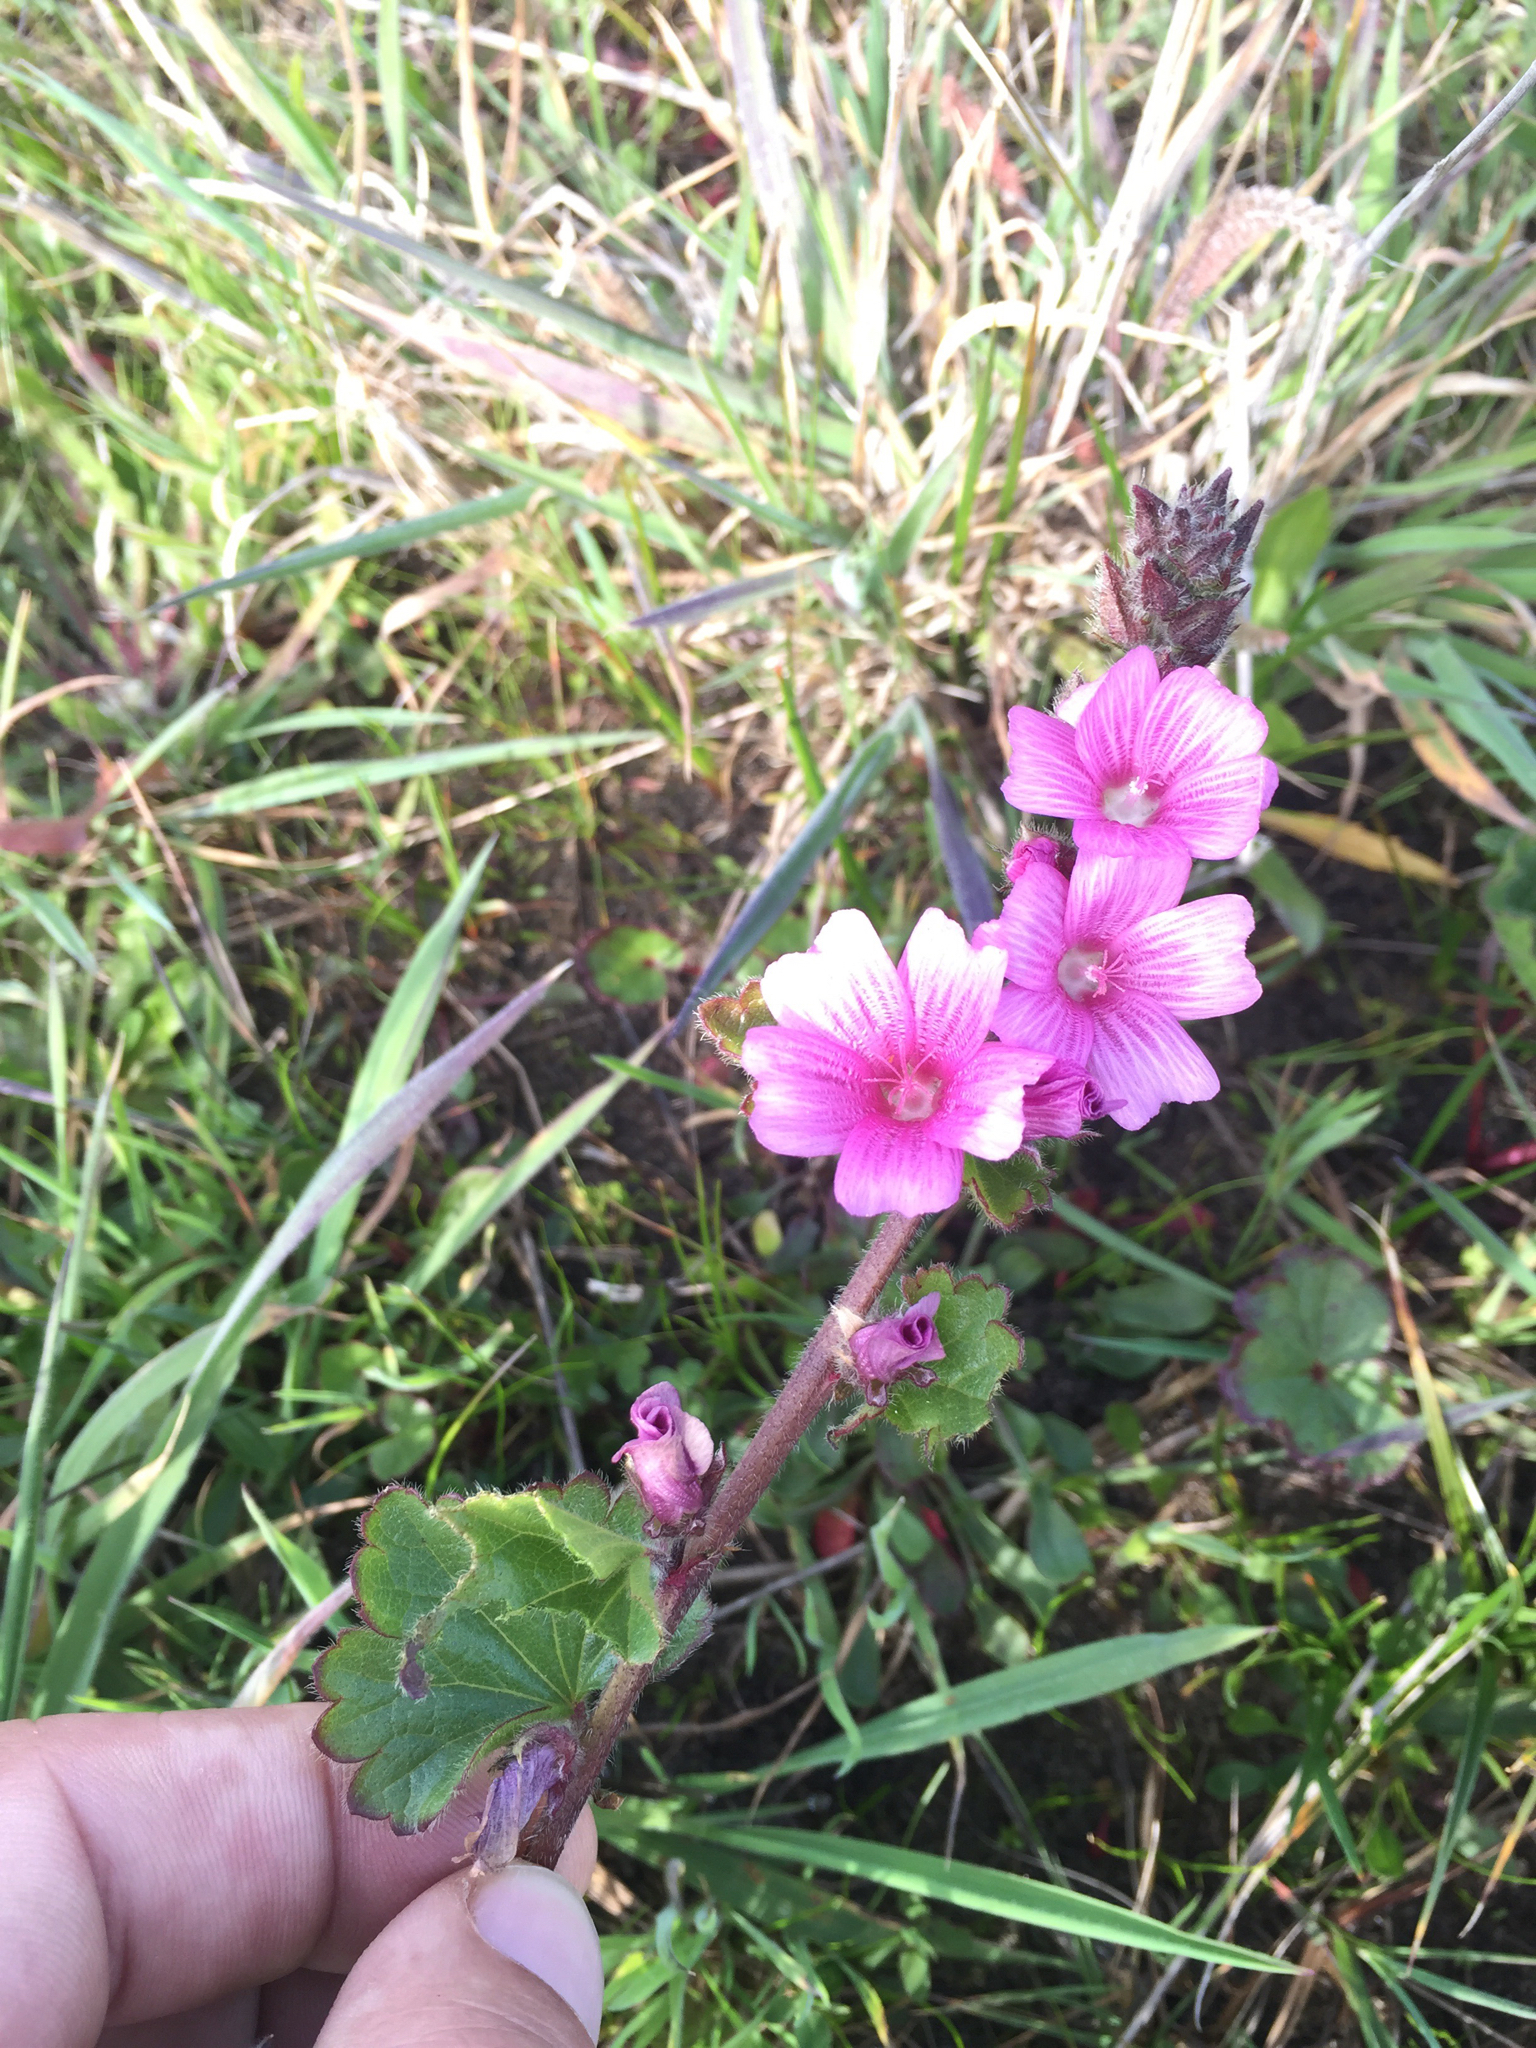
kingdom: Plantae
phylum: Tracheophyta
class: Magnoliopsida
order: Malvales
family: Malvaceae
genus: Sidalcea
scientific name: Sidalcea malviflora
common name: Greek mallow
